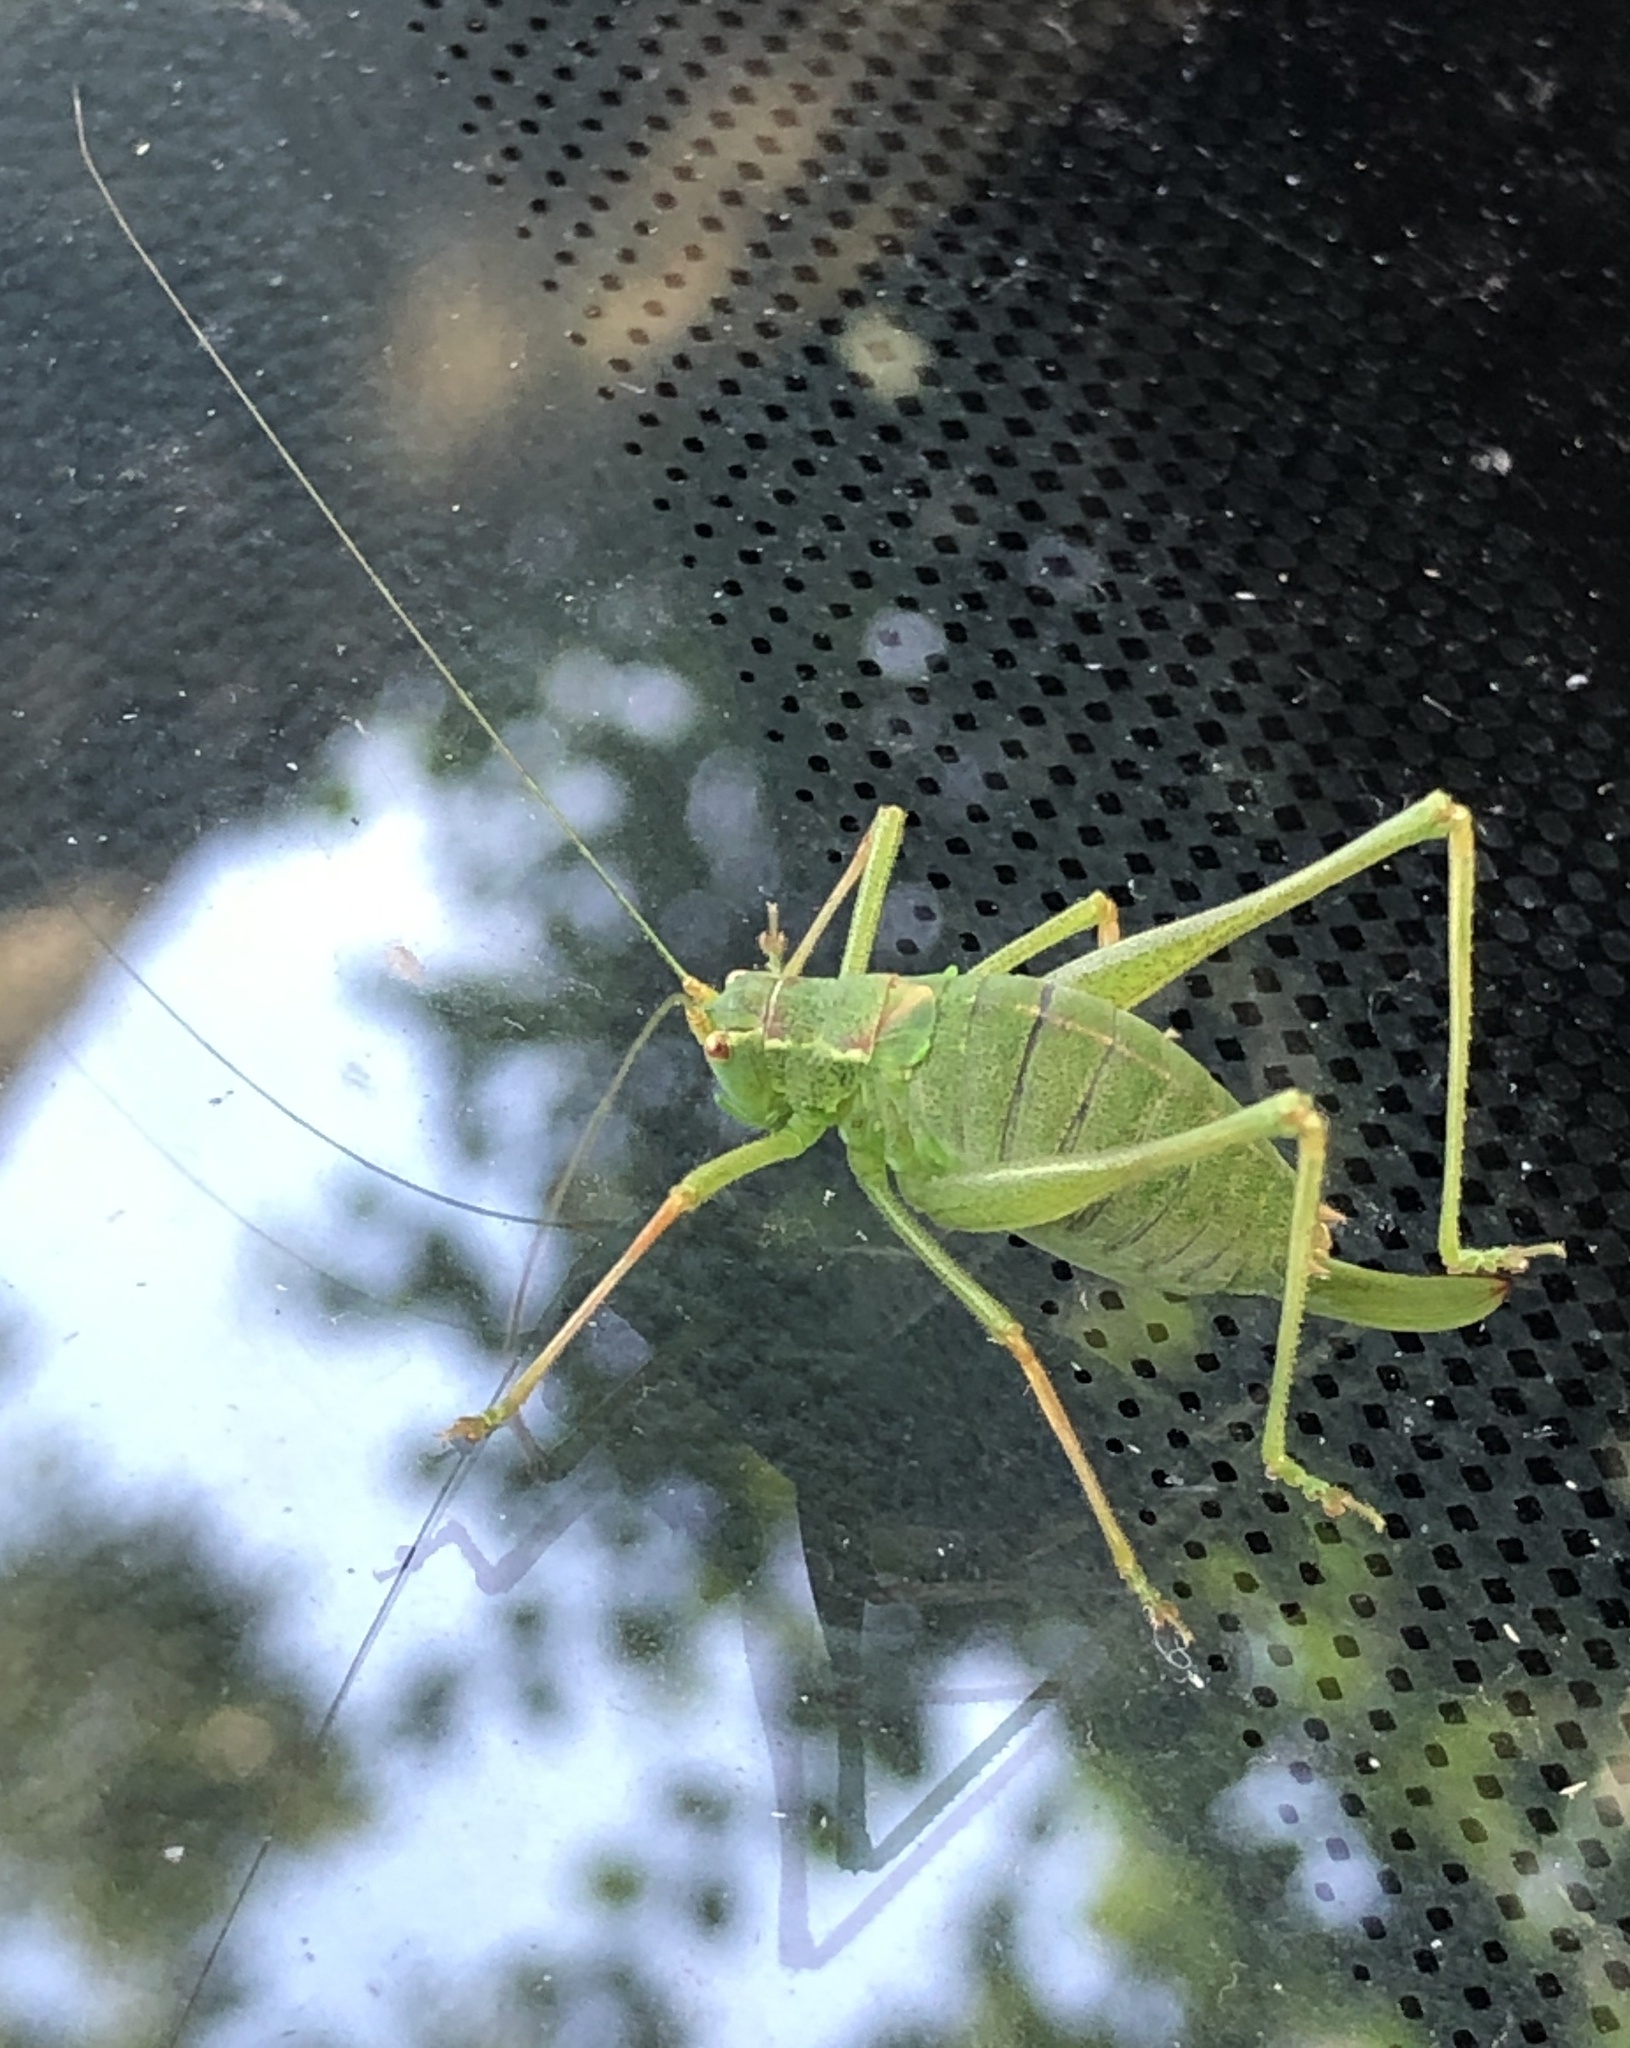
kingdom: Animalia
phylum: Arthropoda
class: Insecta
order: Orthoptera
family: Tettigoniidae
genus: Leptophyes
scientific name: Leptophyes punctatissima
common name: Speckled bush-cricket
